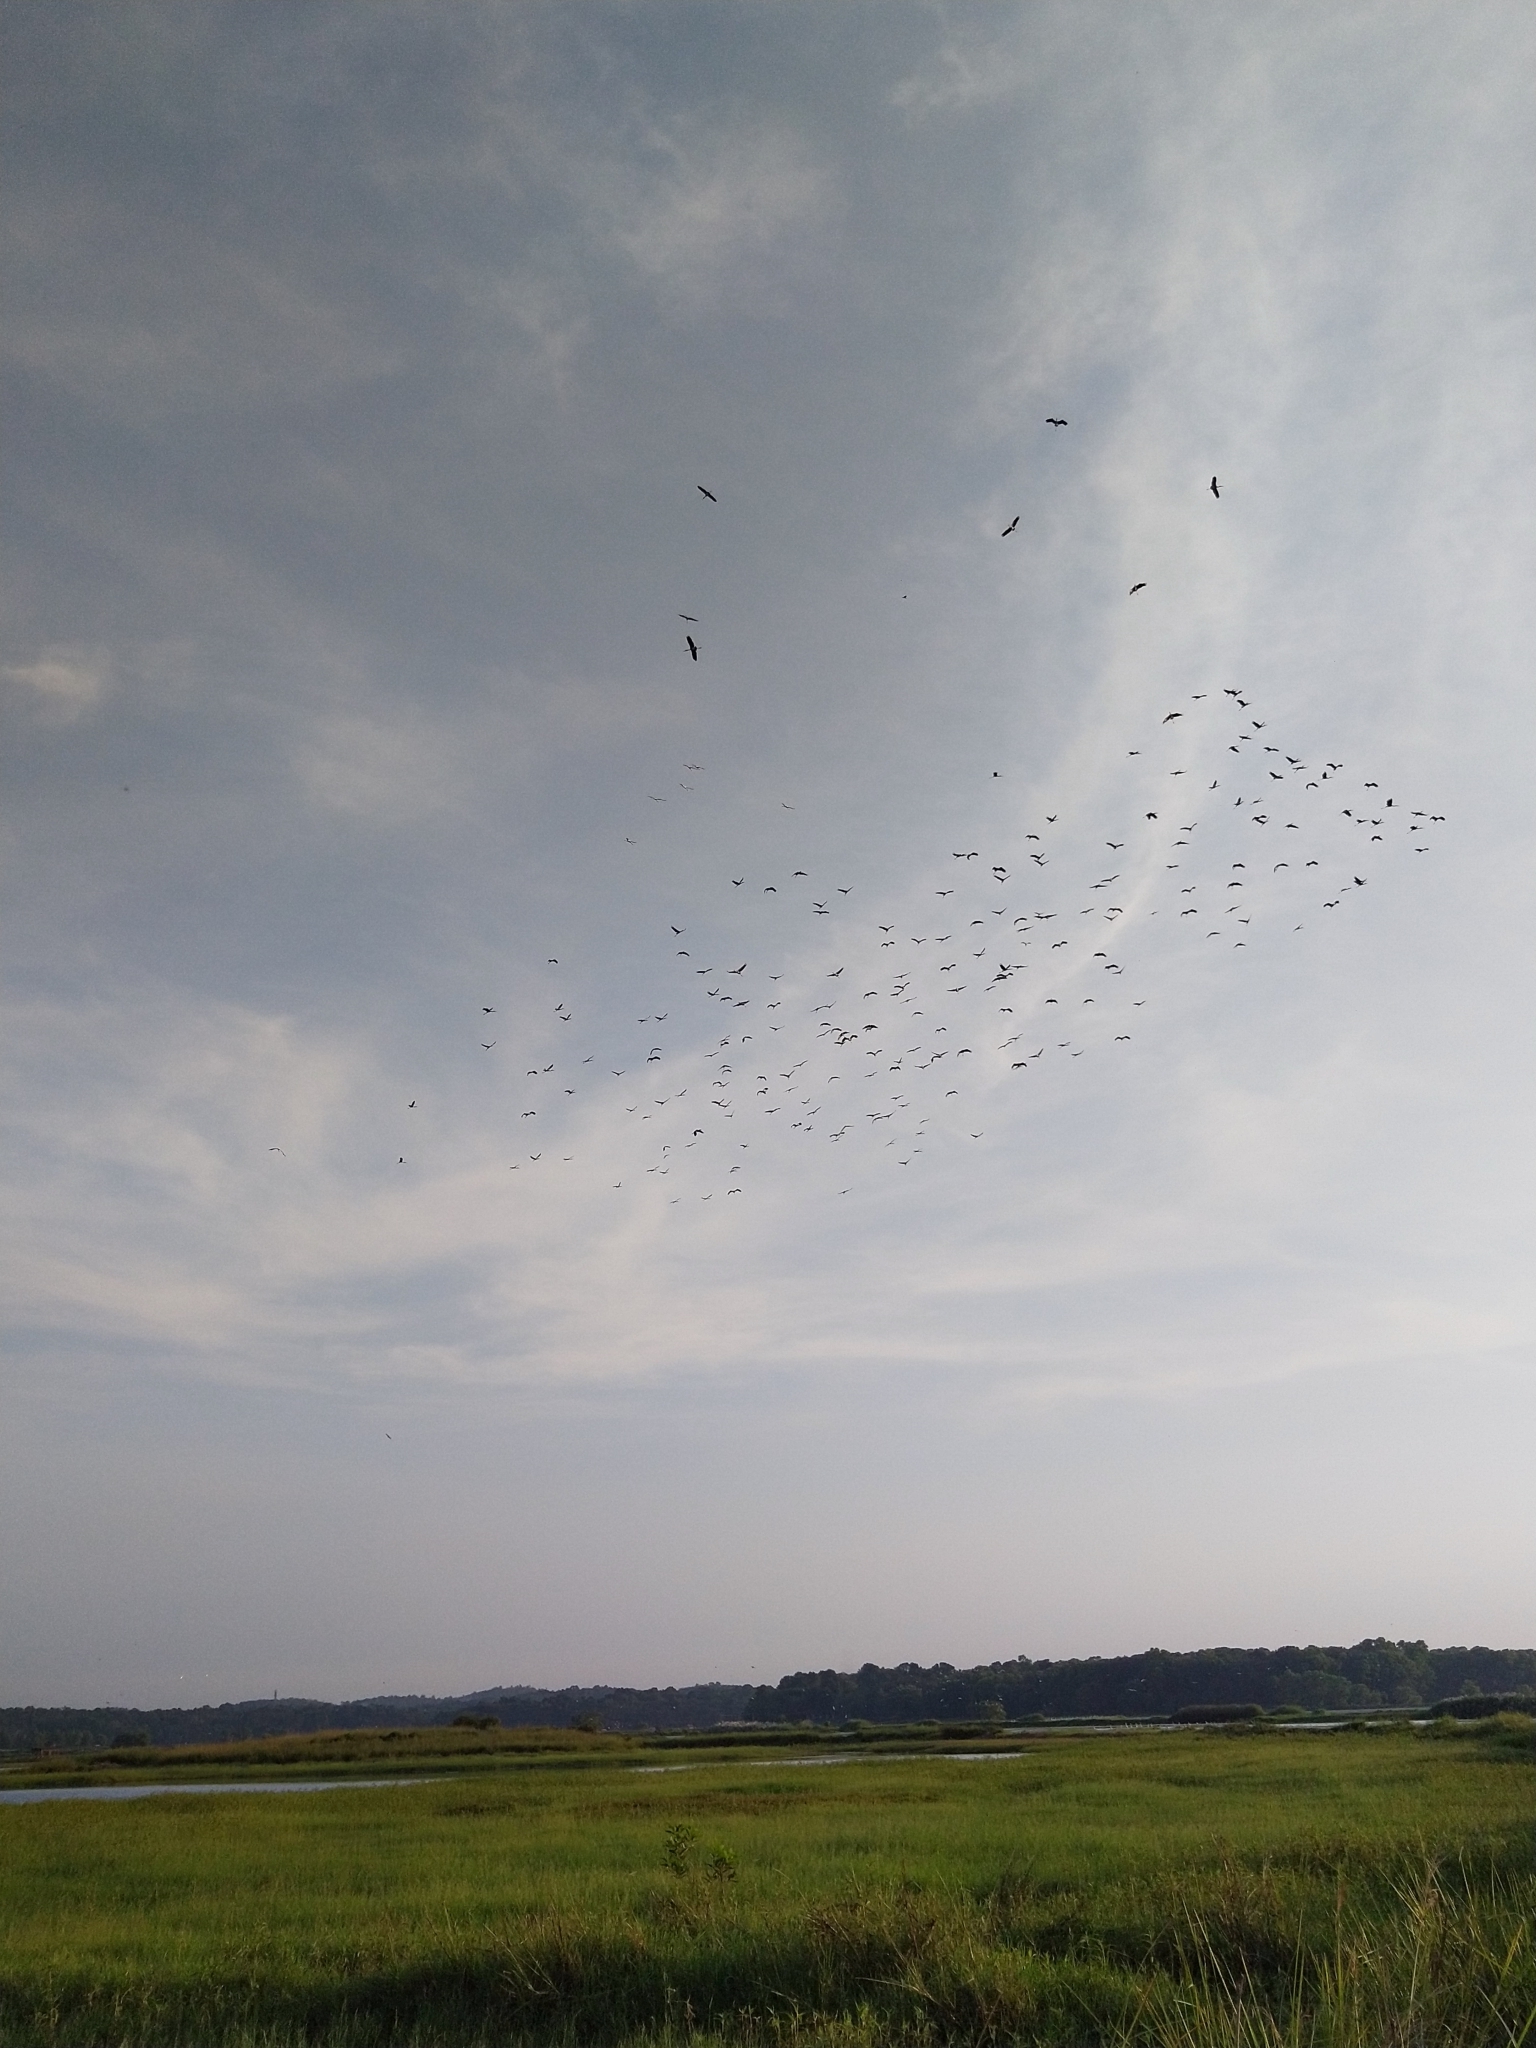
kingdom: Animalia
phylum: Chordata
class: Aves
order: Ciconiiformes
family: Ciconiidae
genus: Mycteria
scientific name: Mycteria leucocephala
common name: Painted stork
